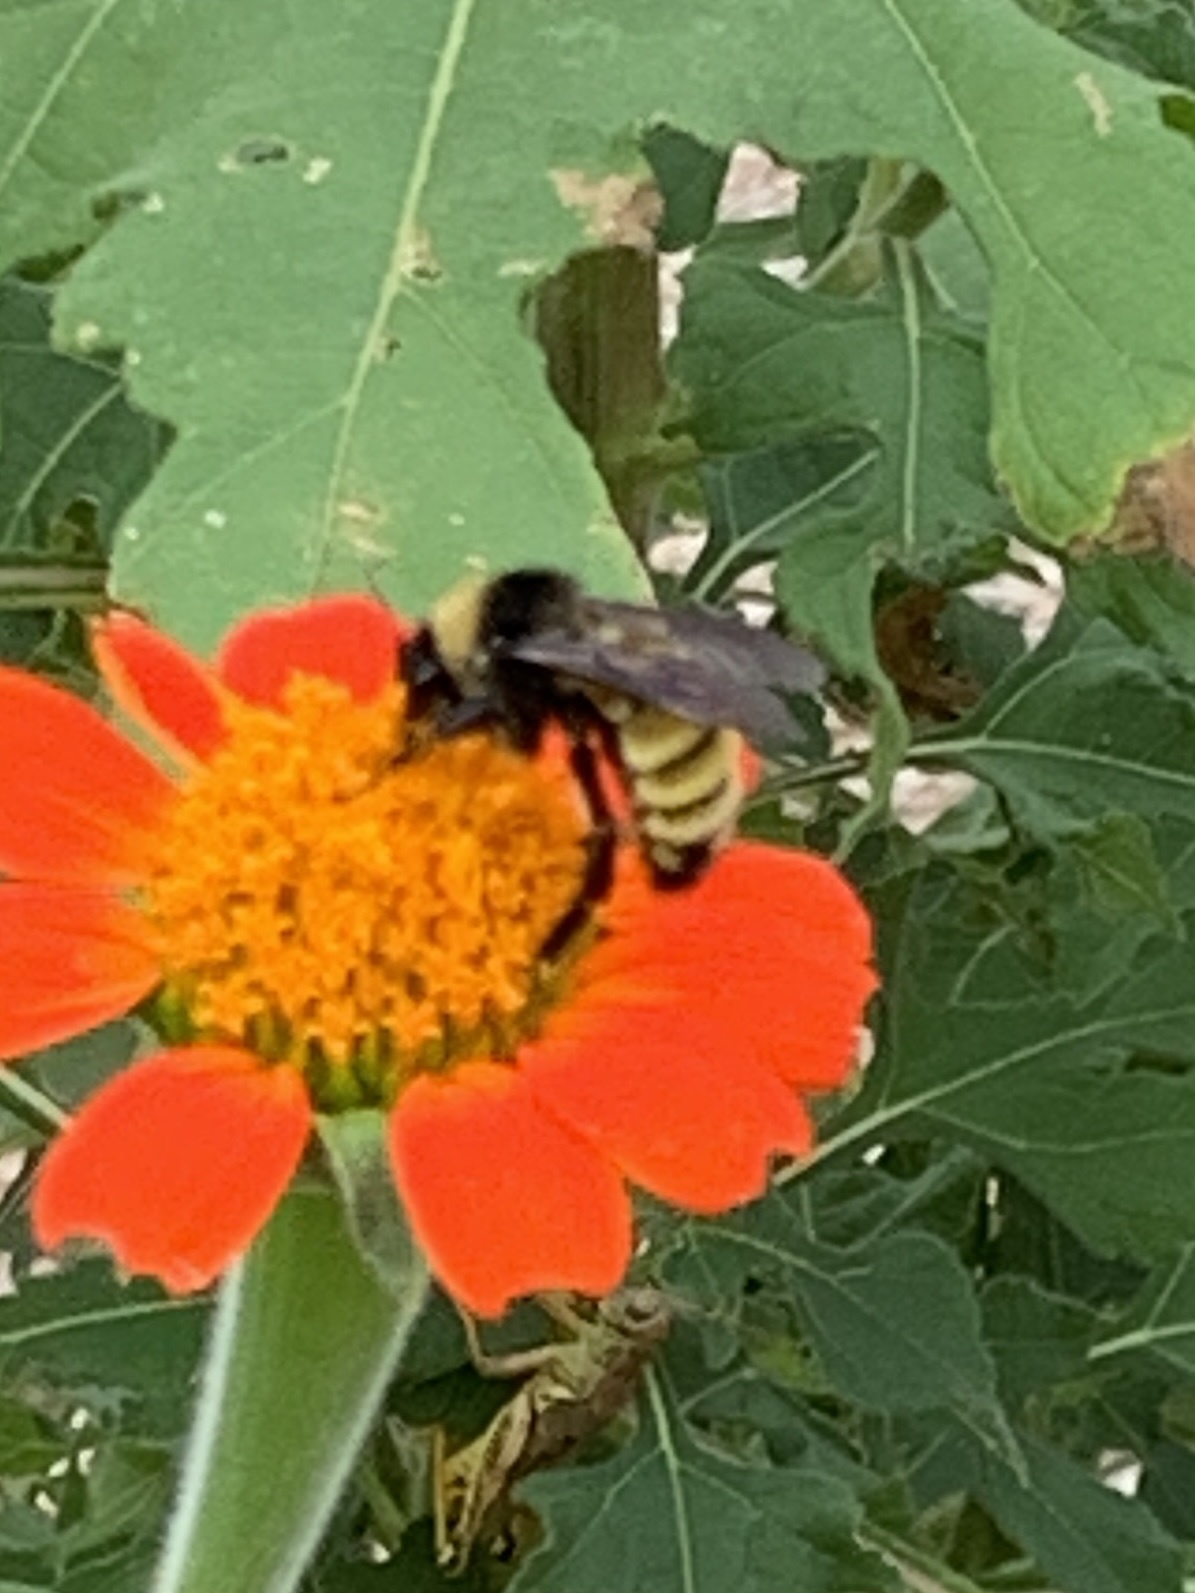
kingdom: Animalia
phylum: Arthropoda
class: Insecta
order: Hymenoptera
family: Apidae
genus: Bombus
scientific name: Bombus pensylvanicus
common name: Bumble bee
